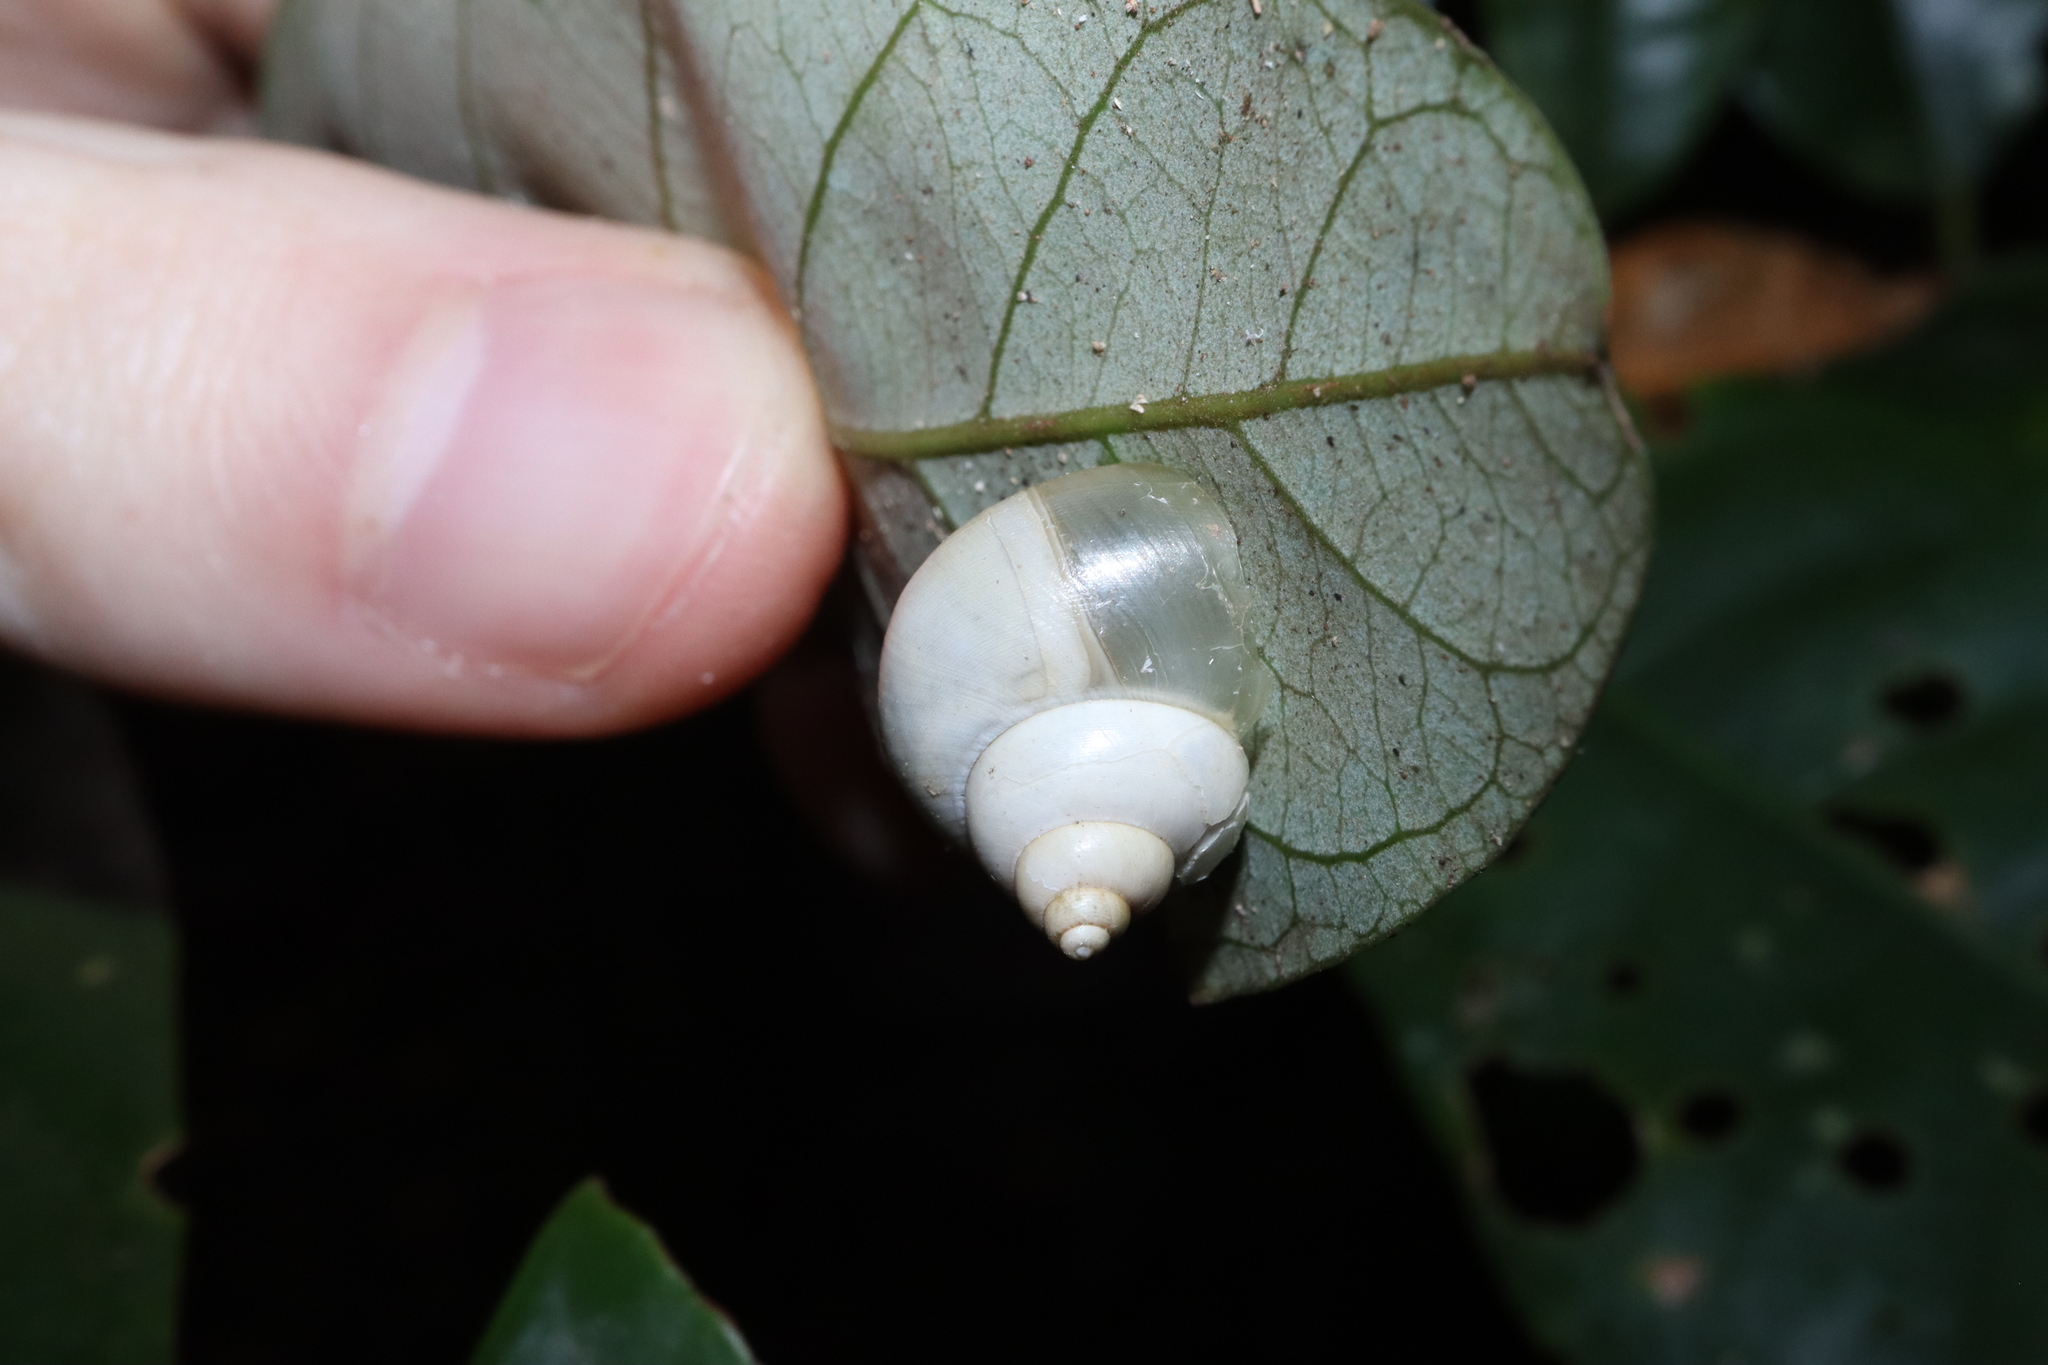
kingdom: Animalia
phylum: Mollusca
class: Gastropoda
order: Architaenioglossa
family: Cyclophoridae
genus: Leptopoma
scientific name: Leptopoma perlucidum
